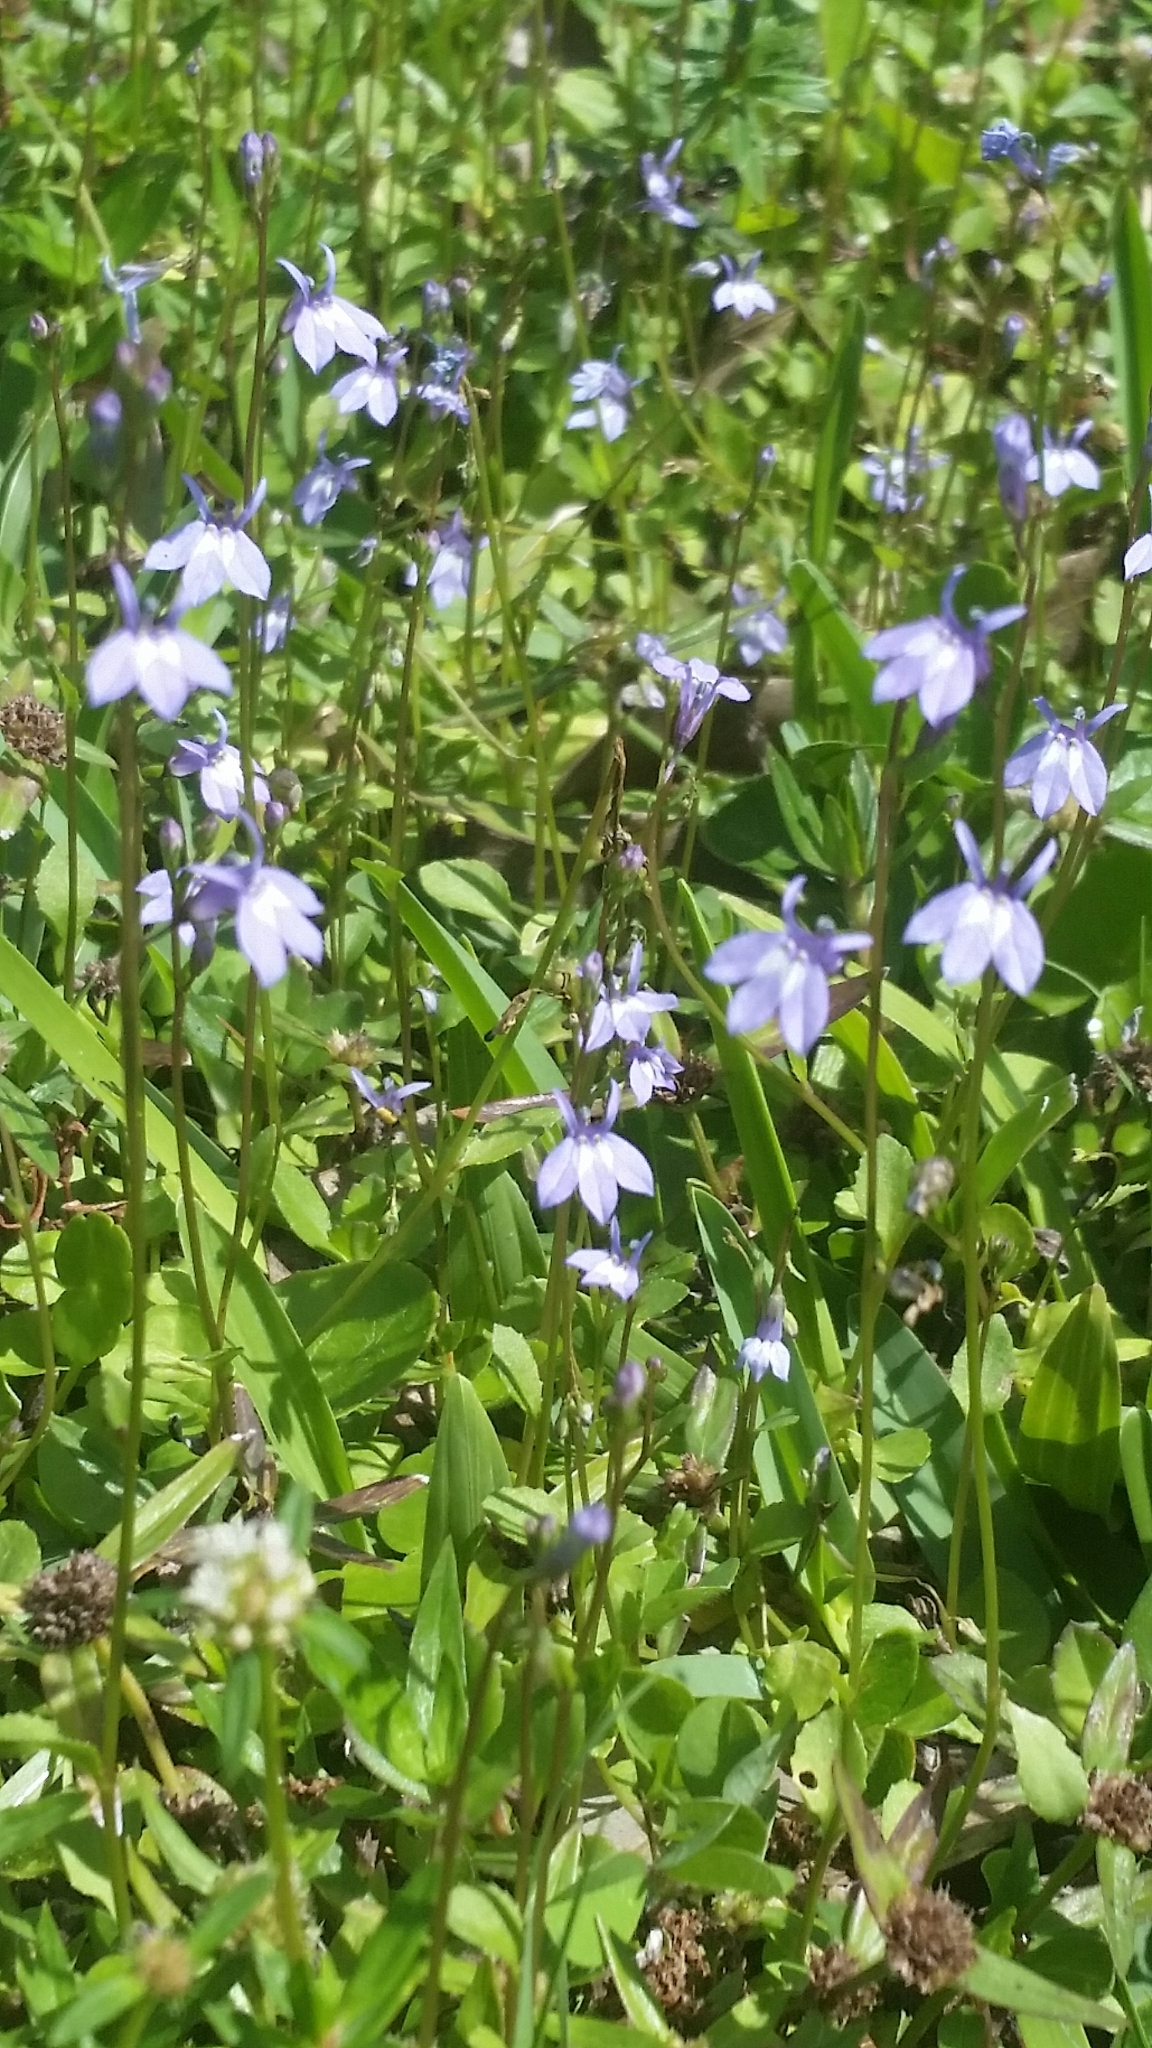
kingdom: Plantae
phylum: Tracheophyta
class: Magnoliopsida
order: Asterales
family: Campanulaceae
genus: Lobelia
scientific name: Lobelia feayana
